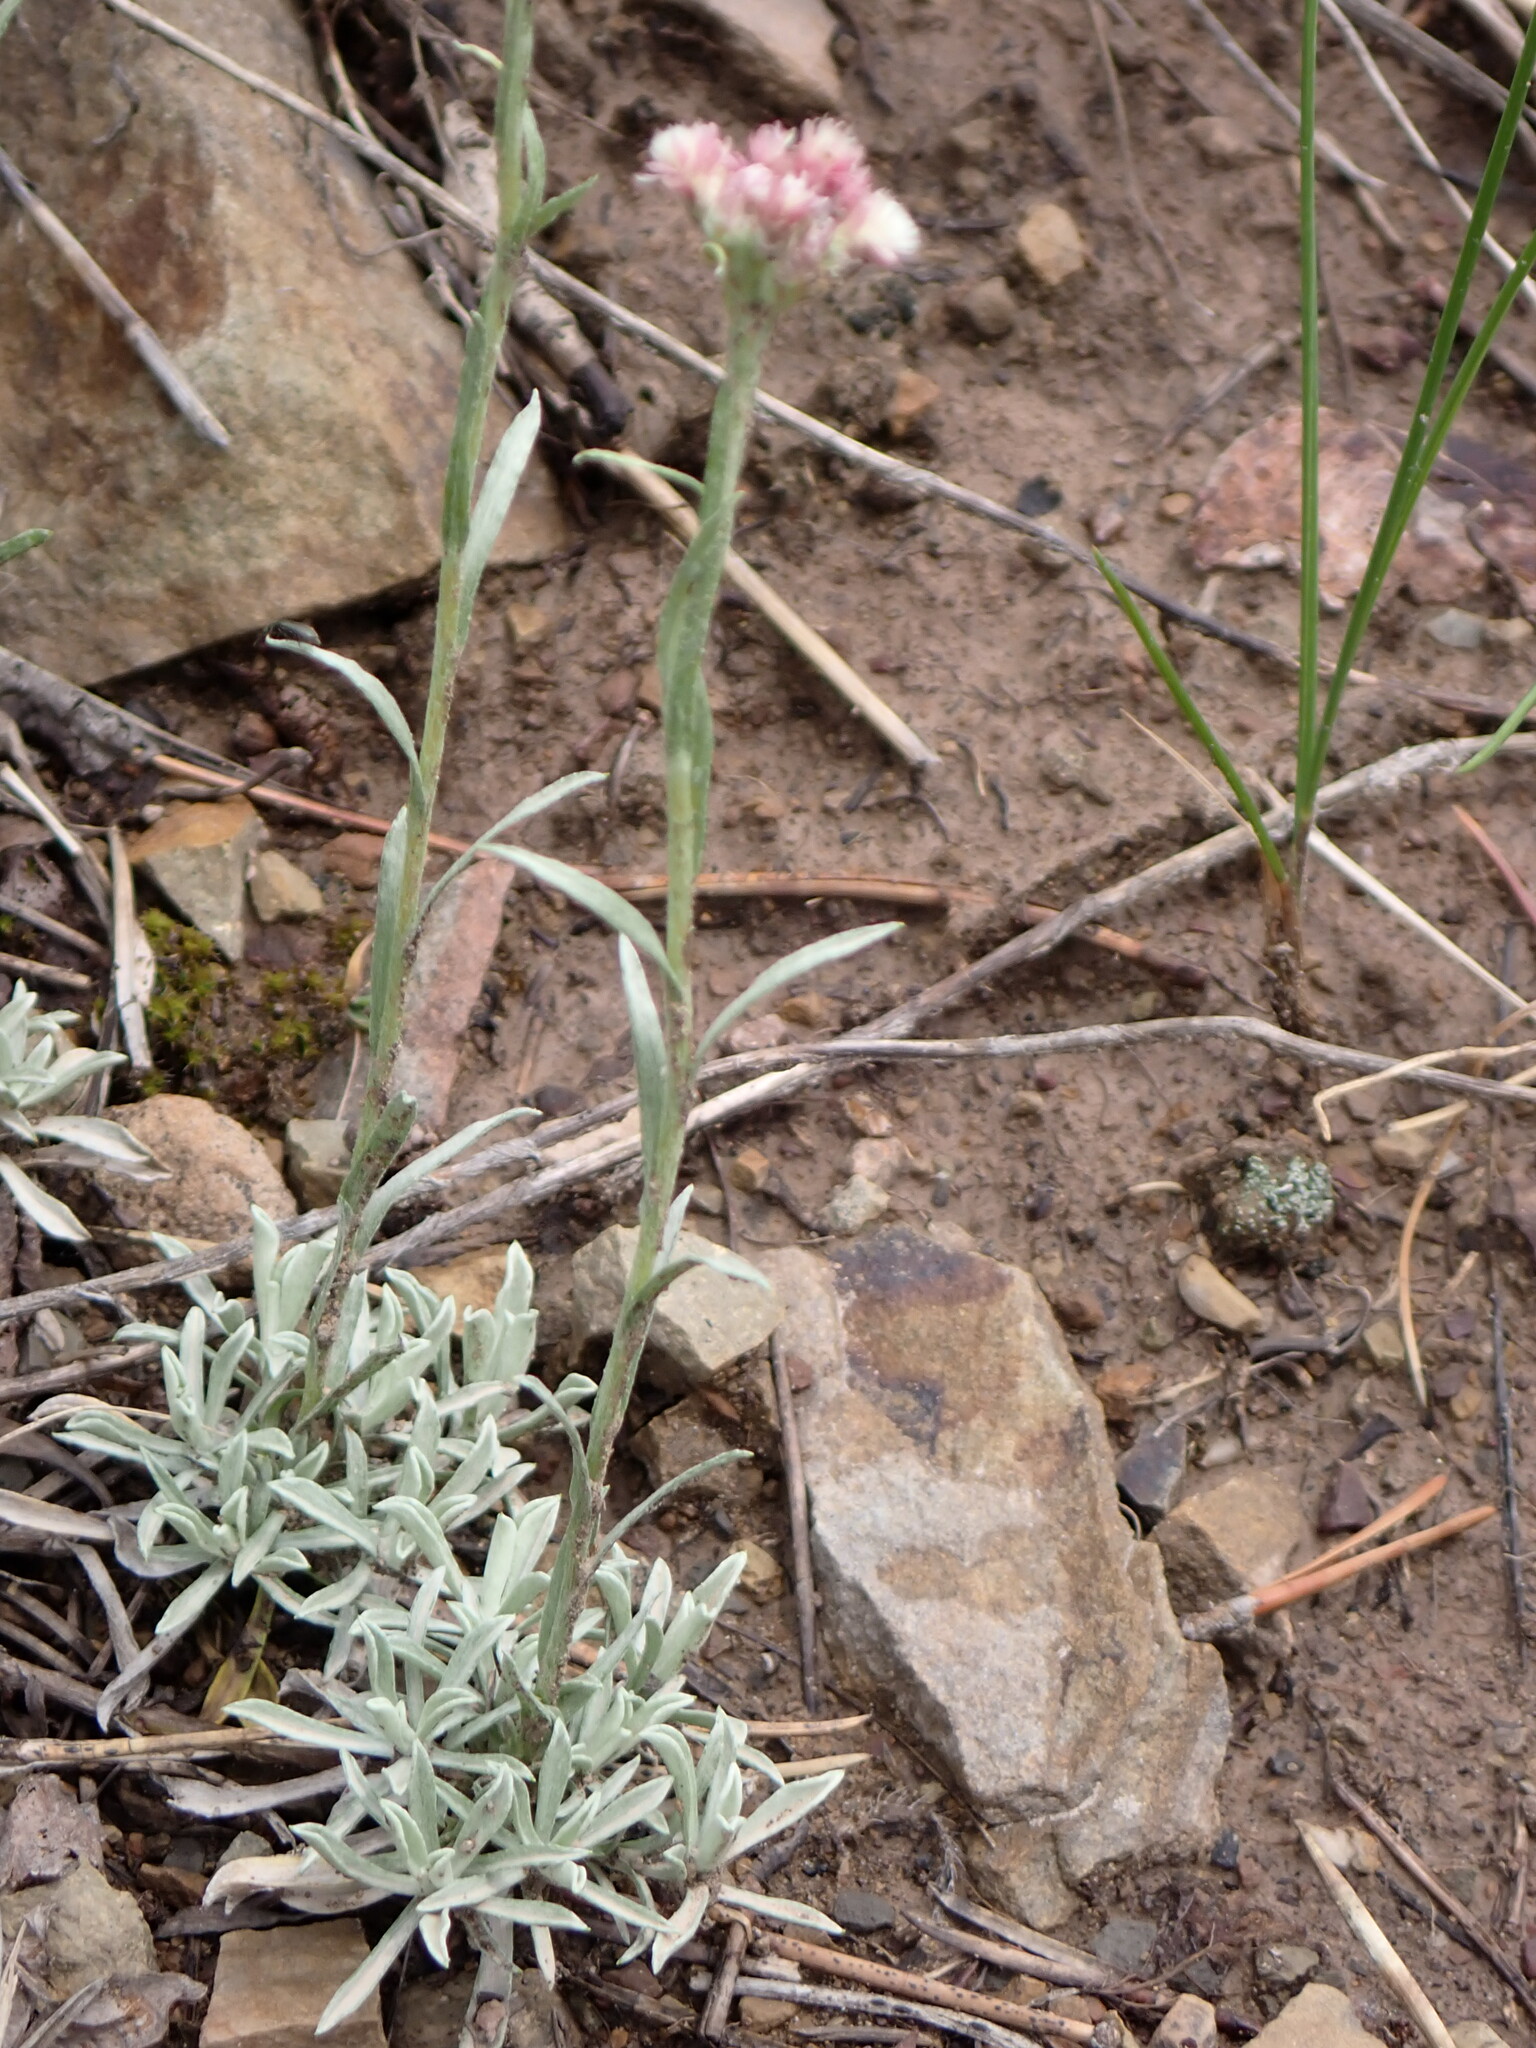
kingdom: Plantae
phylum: Tracheophyta
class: Magnoliopsida
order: Asterales
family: Asteraceae
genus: Antennaria
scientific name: Antennaria rosea
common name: Rosy pussytoes
